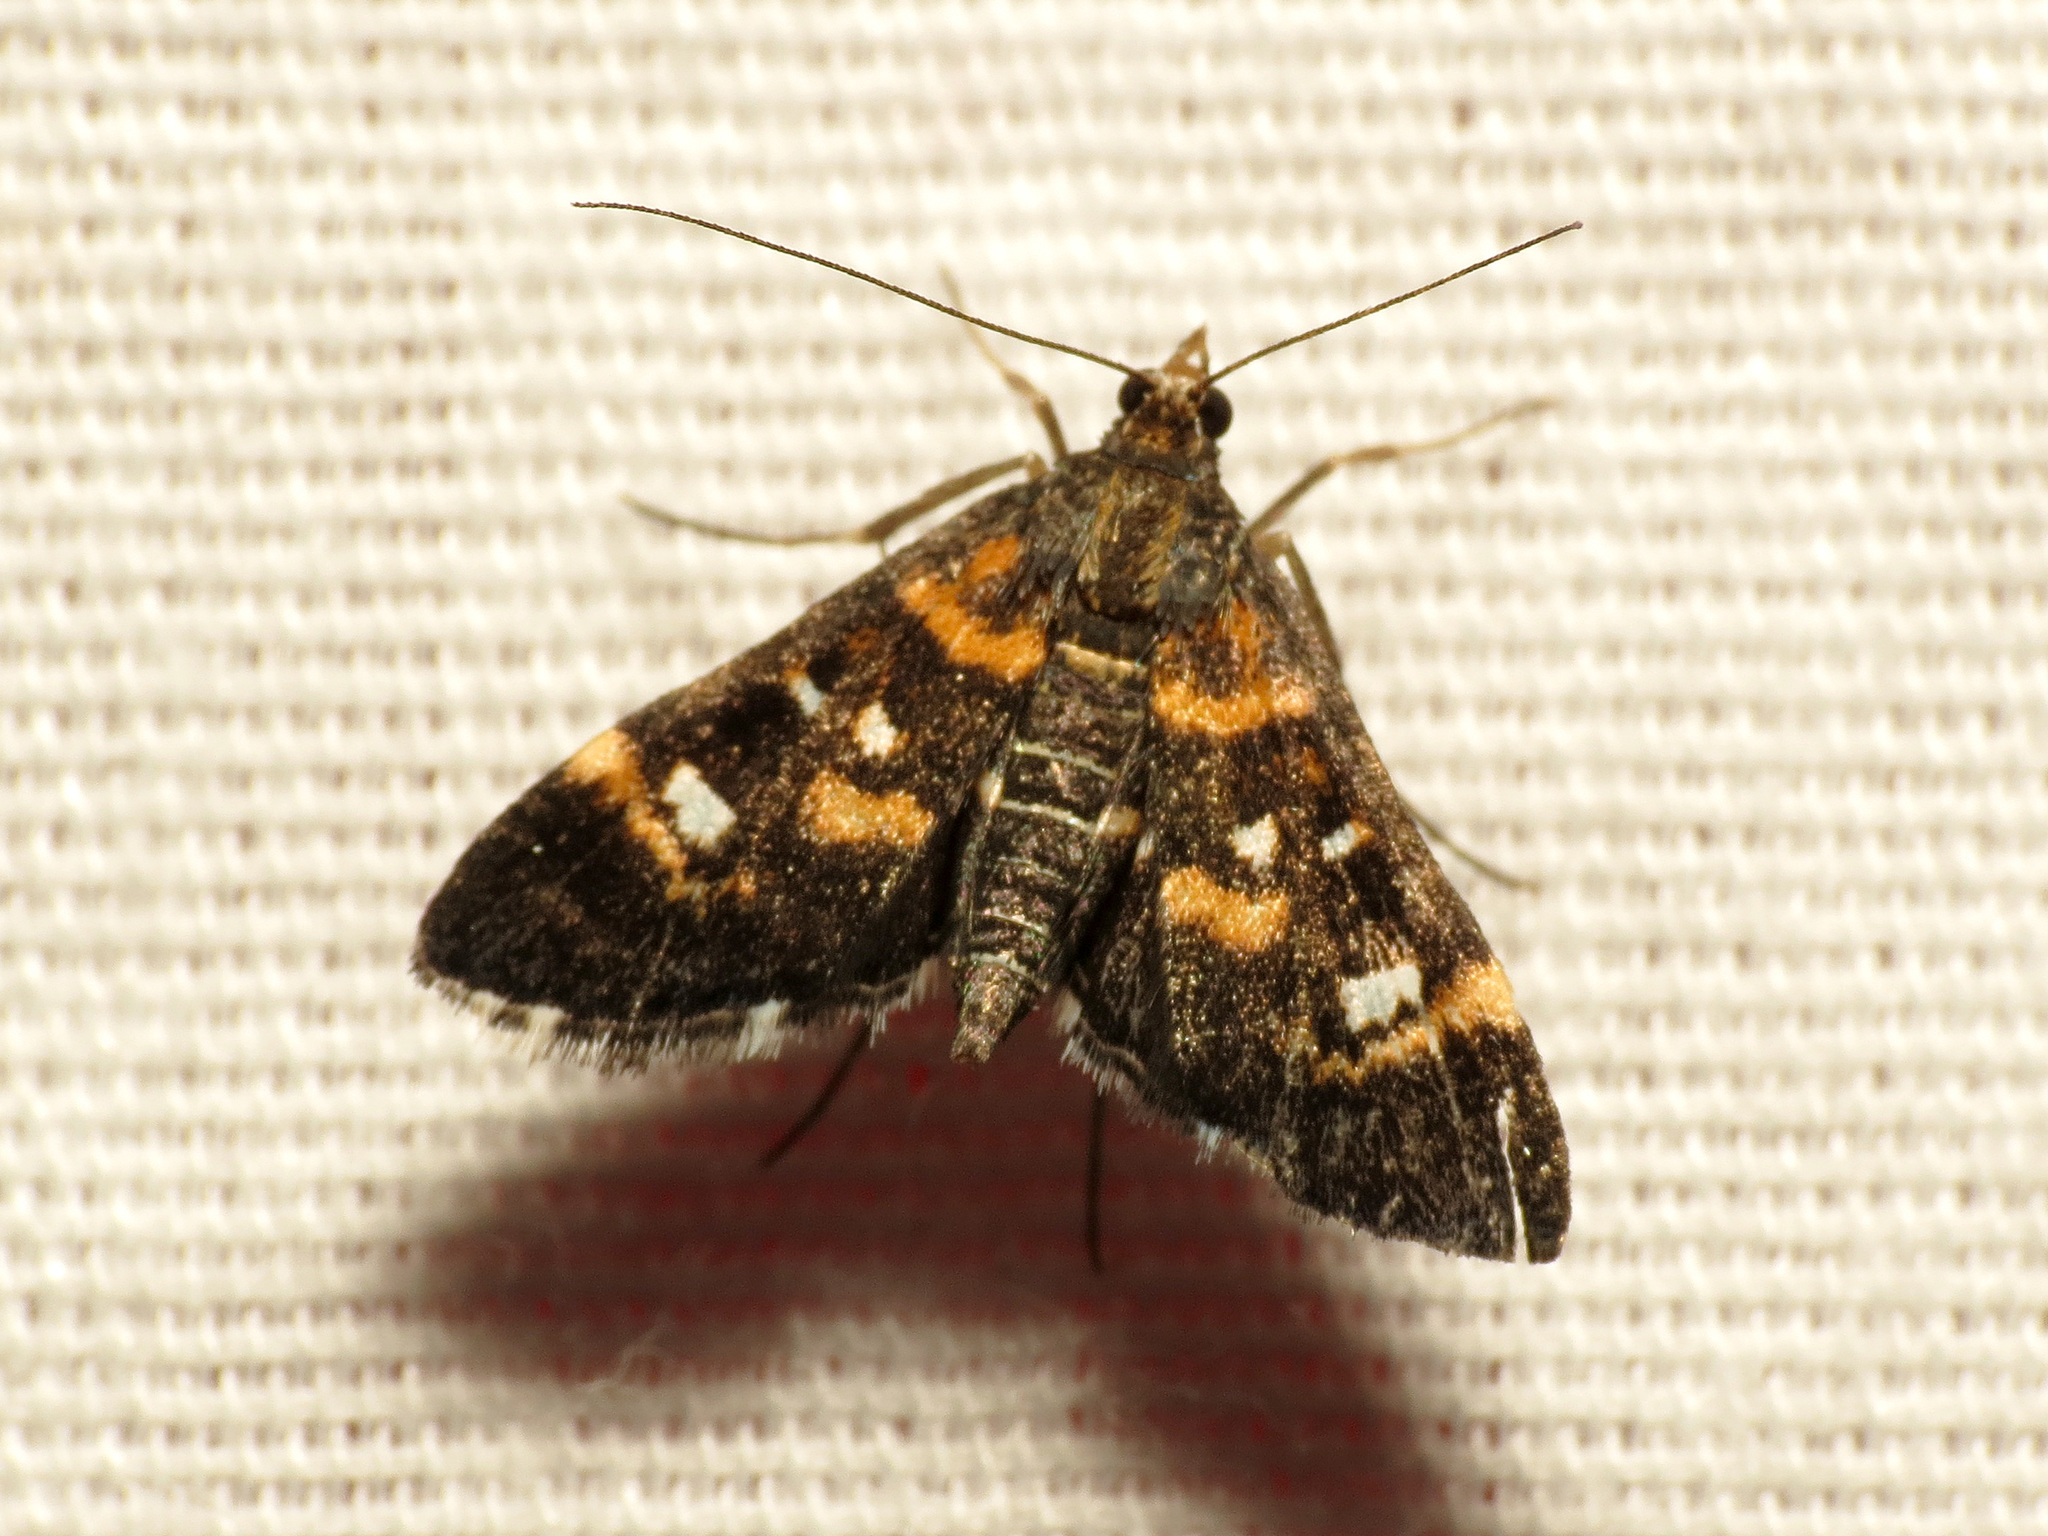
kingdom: Animalia
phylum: Arthropoda
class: Insecta
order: Lepidoptera
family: Crambidae
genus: Diathrausta
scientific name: Diathrausta harlequinalis
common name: Harlequin webworm moth
